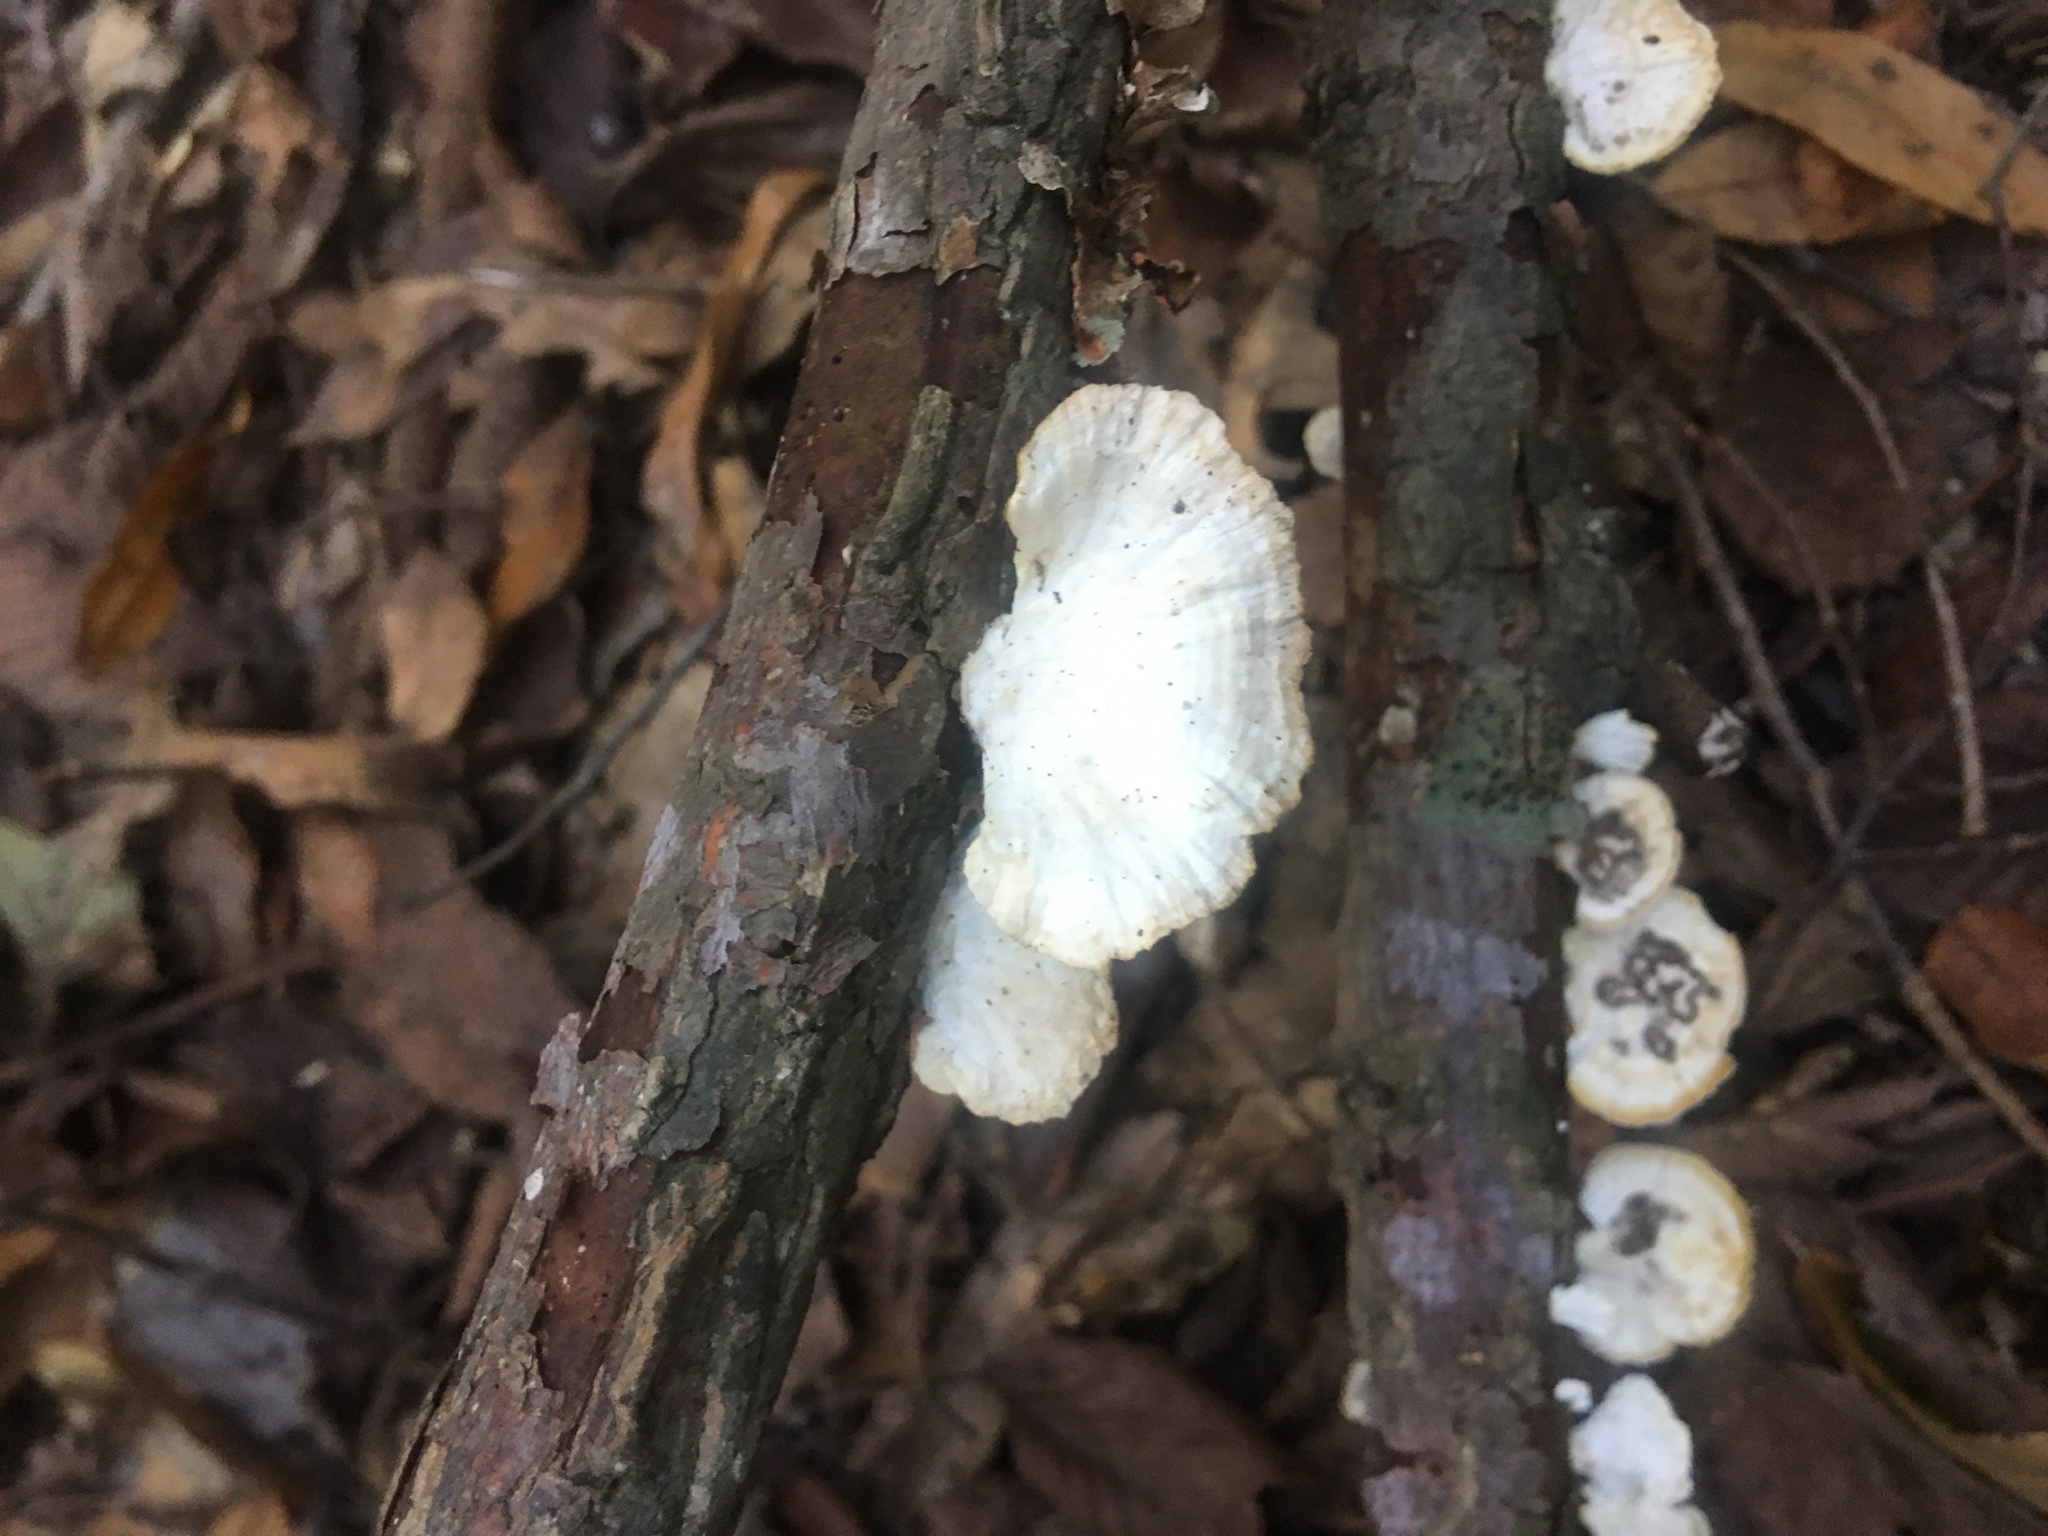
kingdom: Fungi
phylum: Basidiomycota
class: Agaricomycetes
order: Polyporales
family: Polyporaceae
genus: Poronidulus
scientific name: Poronidulus conchifer
